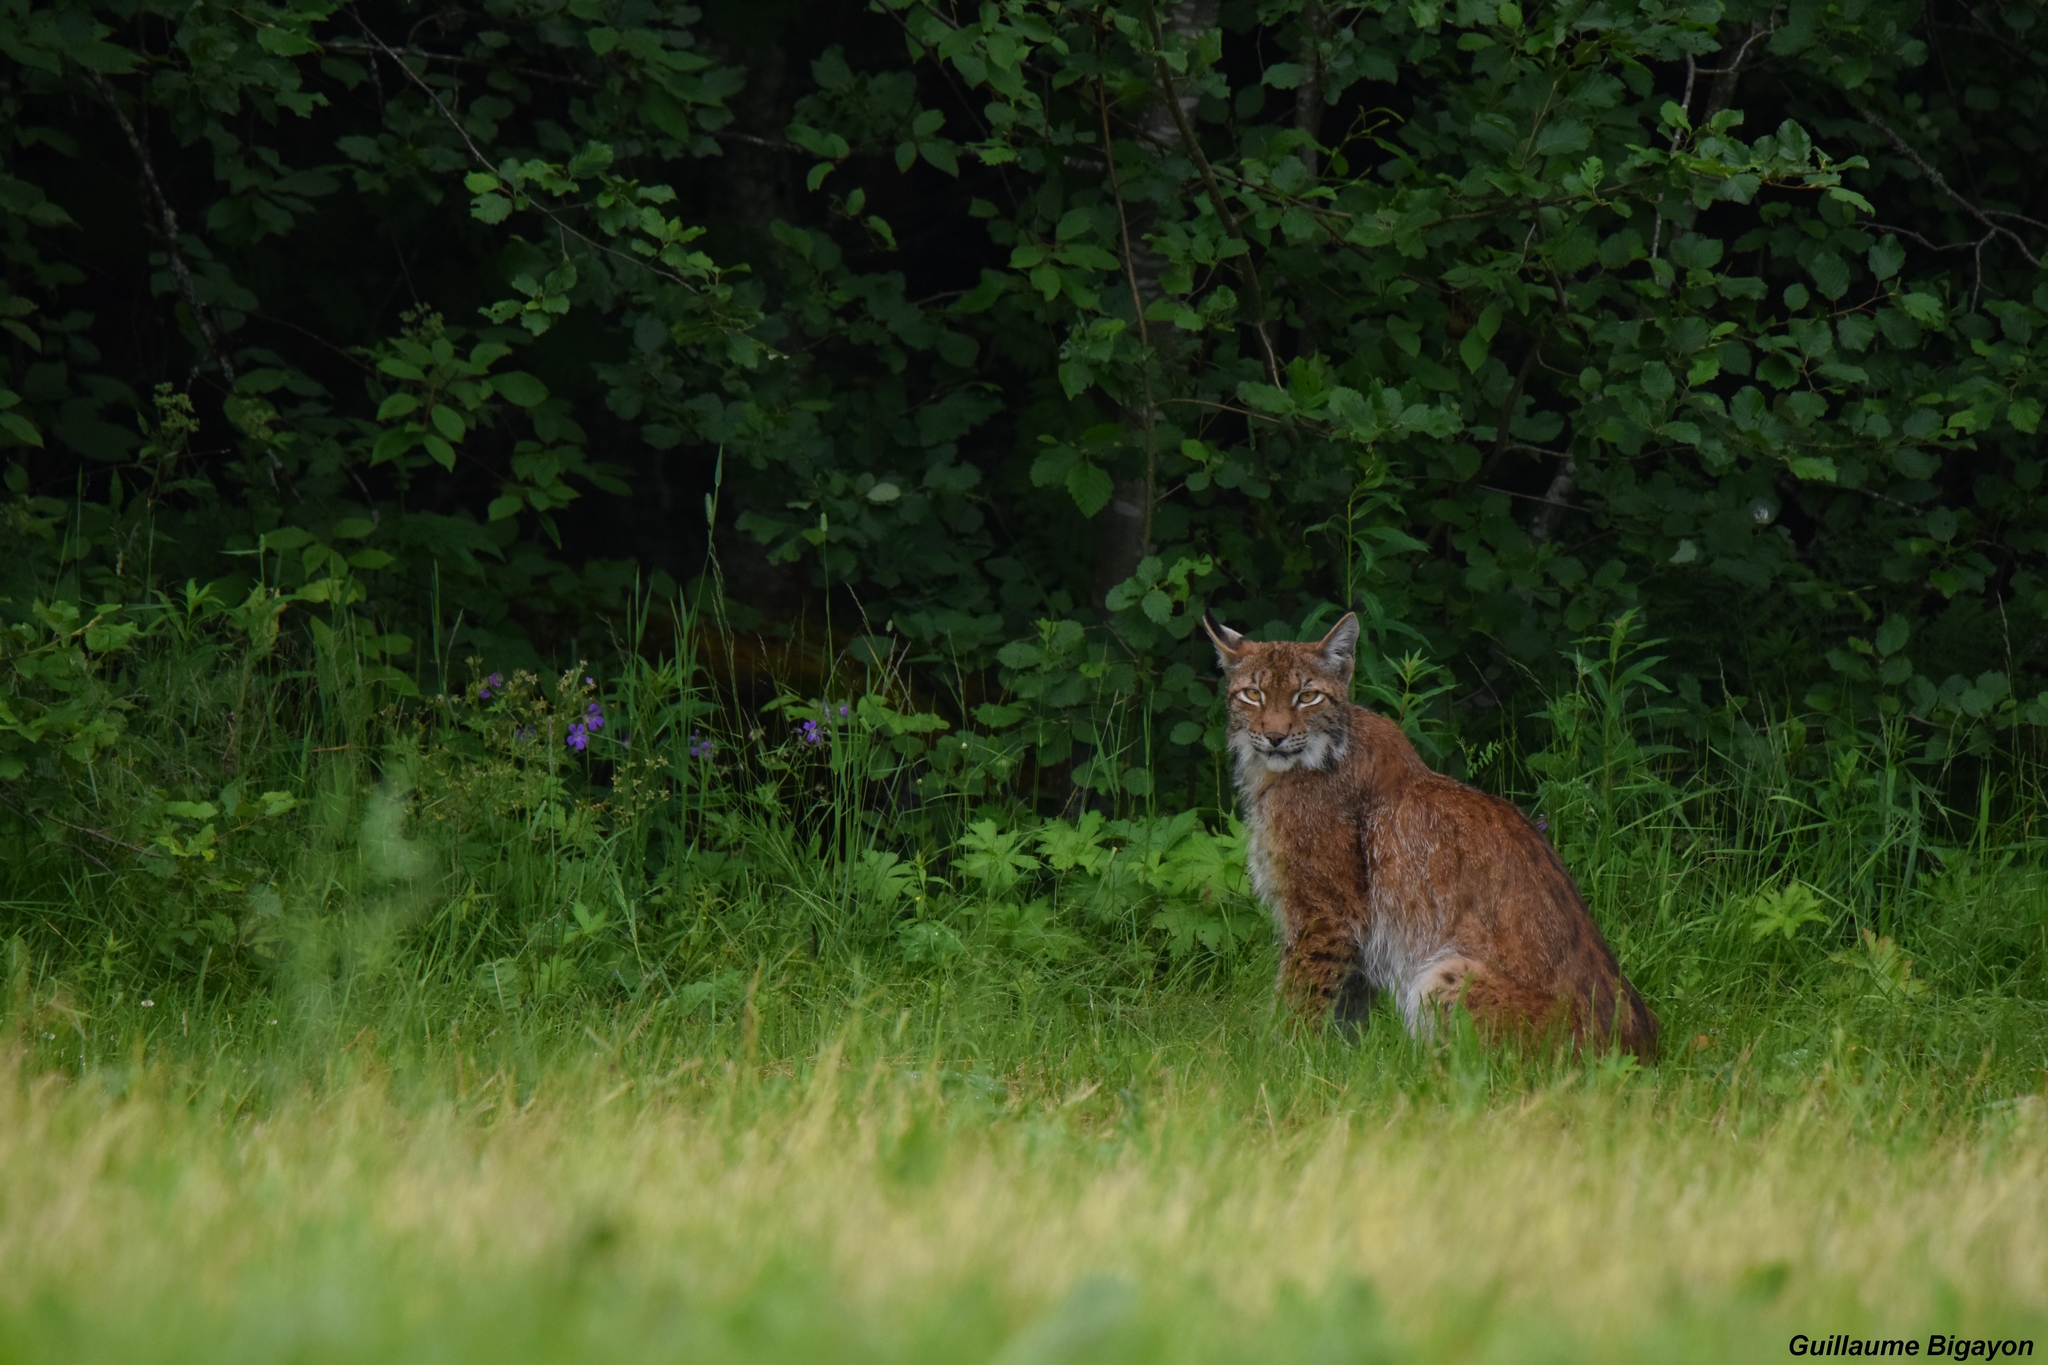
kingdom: Animalia
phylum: Chordata
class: Mammalia
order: Carnivora
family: Felidae
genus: Lynx
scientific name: Lynx lynx
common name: Eurasian lynx
